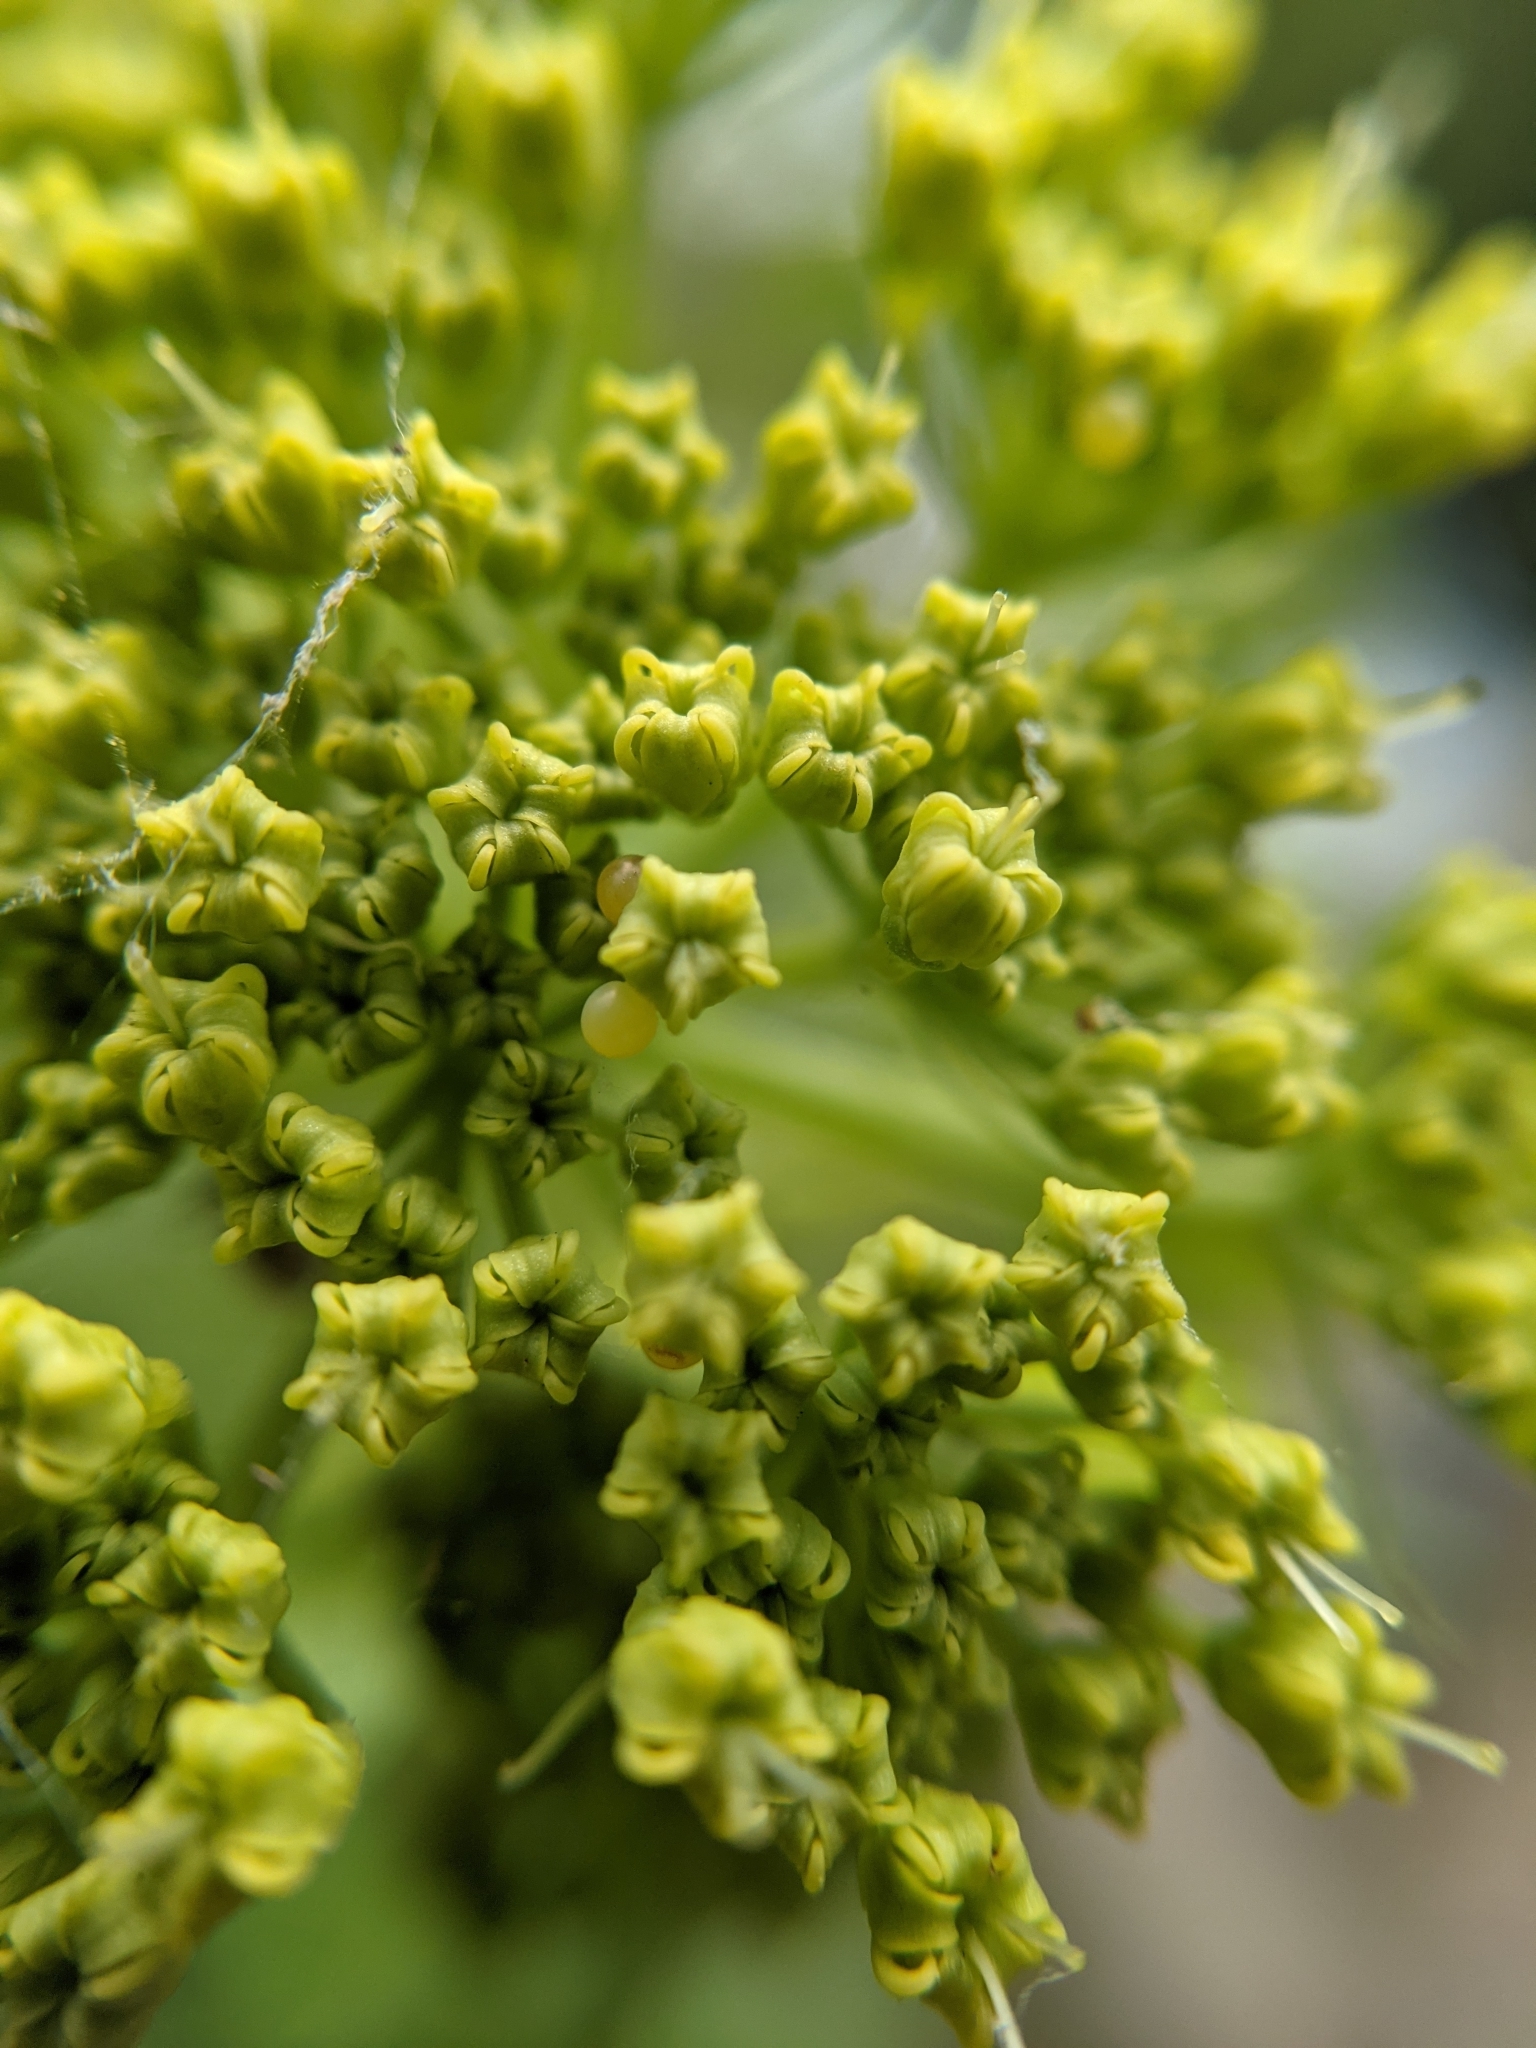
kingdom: Animalia
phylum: Arthropoda
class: Insecta
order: Lepidoptera
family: Papilionidae
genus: Papilio
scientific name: Papilio polyxenes
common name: Black swallowtail
